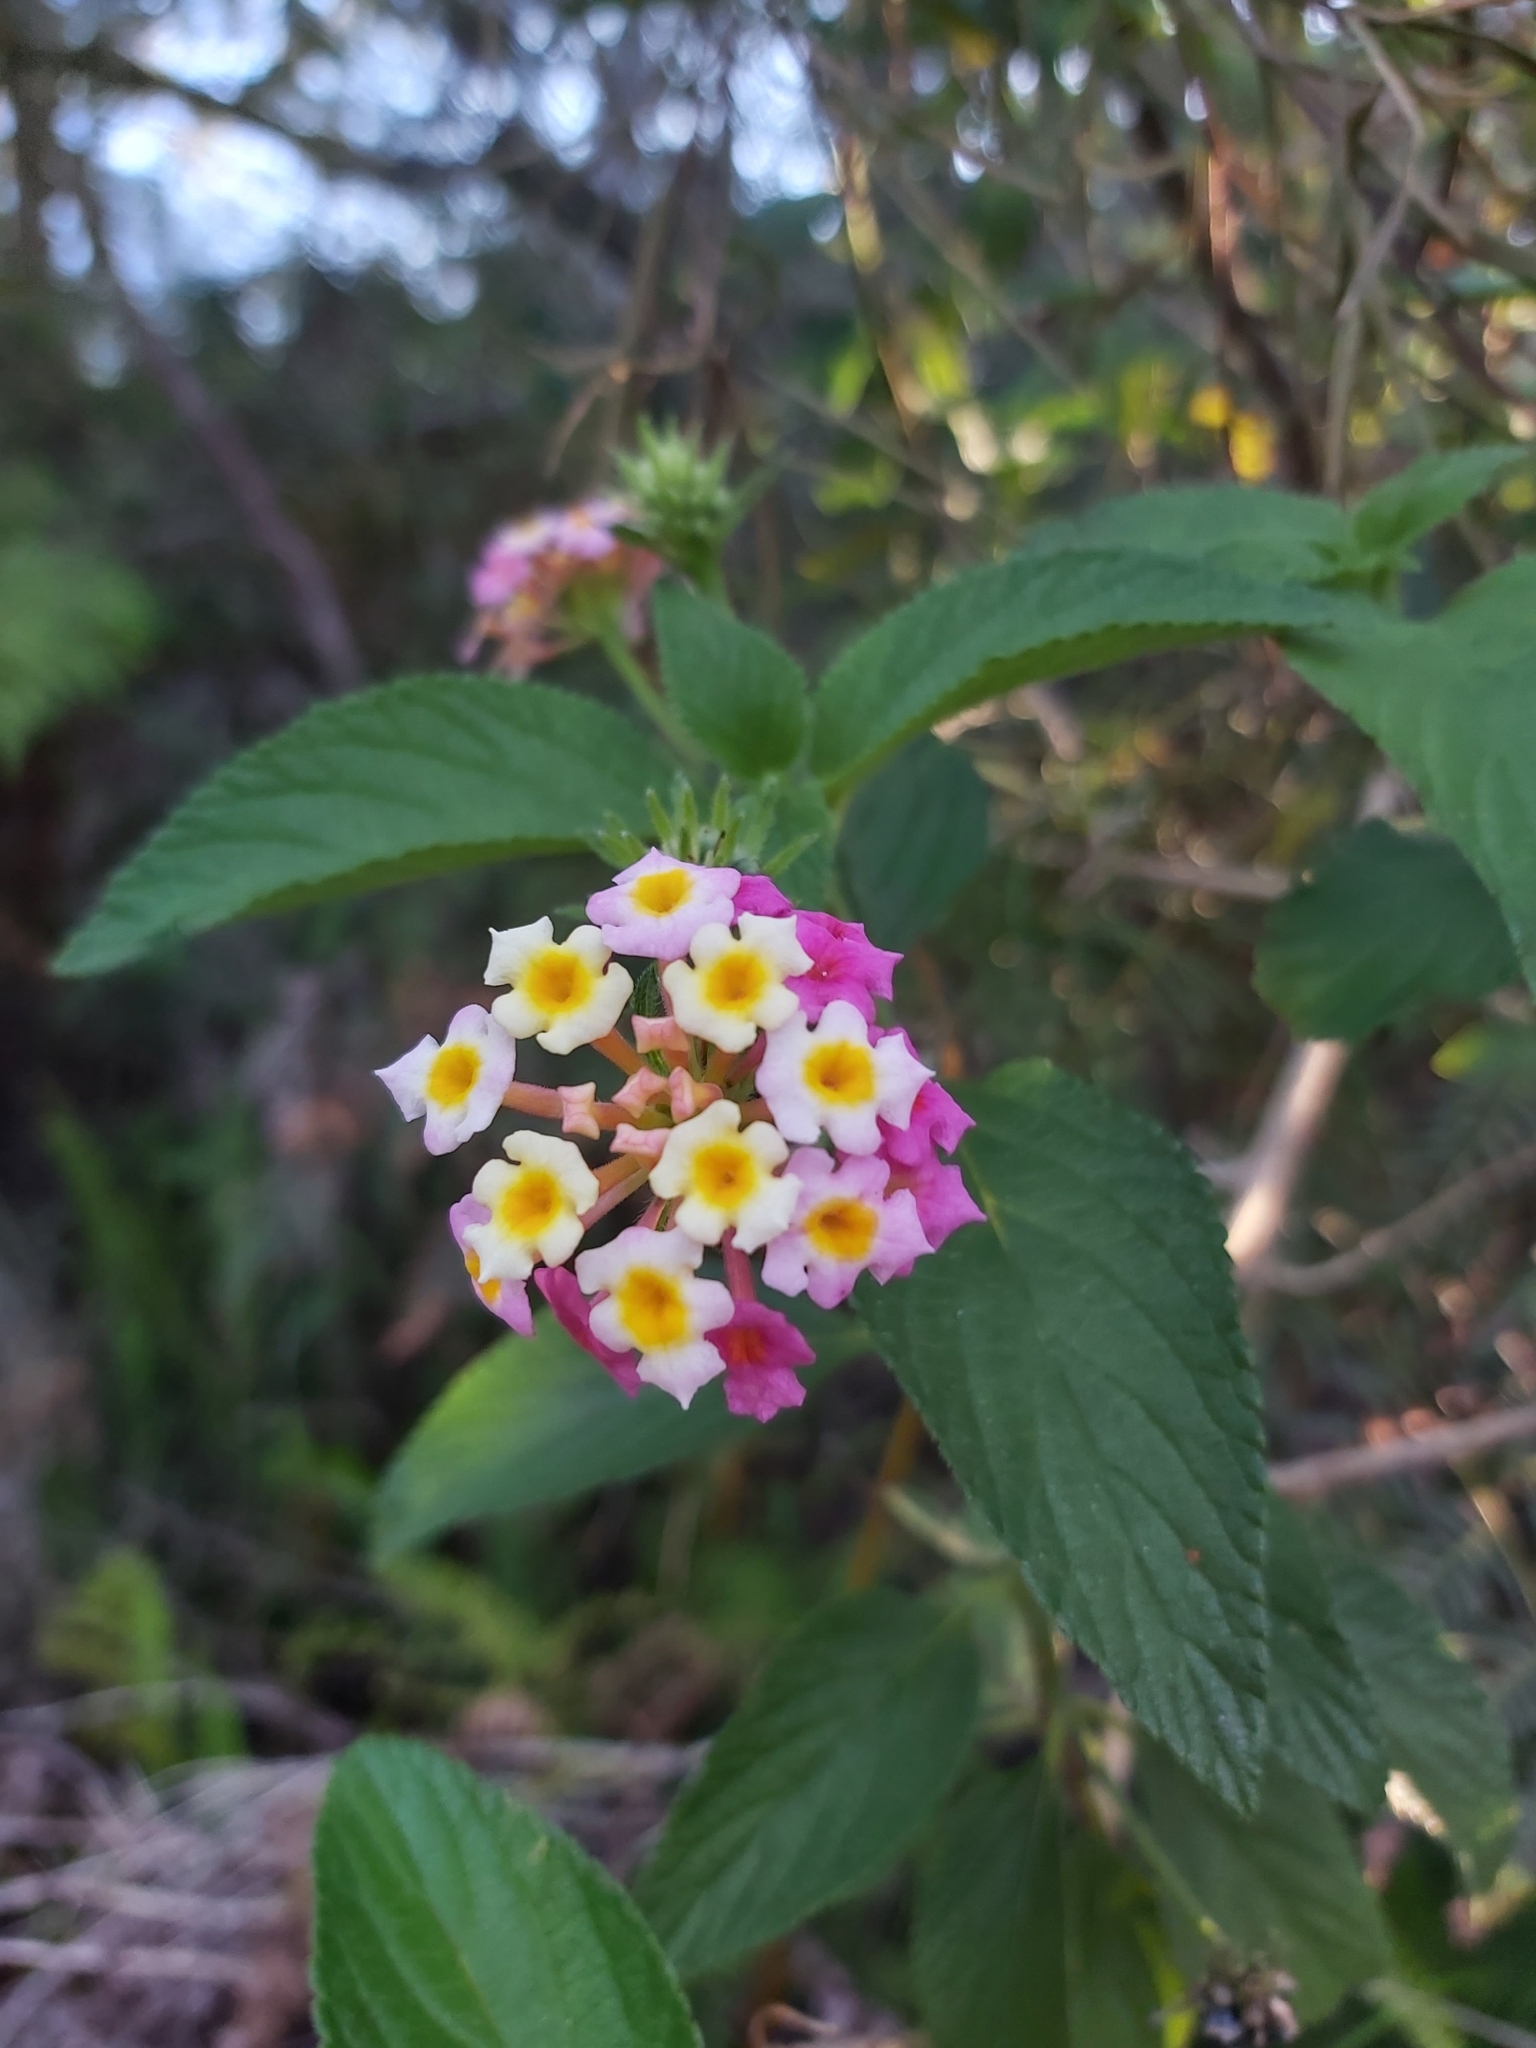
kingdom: Plantae
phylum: Tracheophyta
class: Magnoliopsida
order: Lamiales
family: Verbenaceae
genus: Lantana
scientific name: Lantana camara
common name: Lantana
